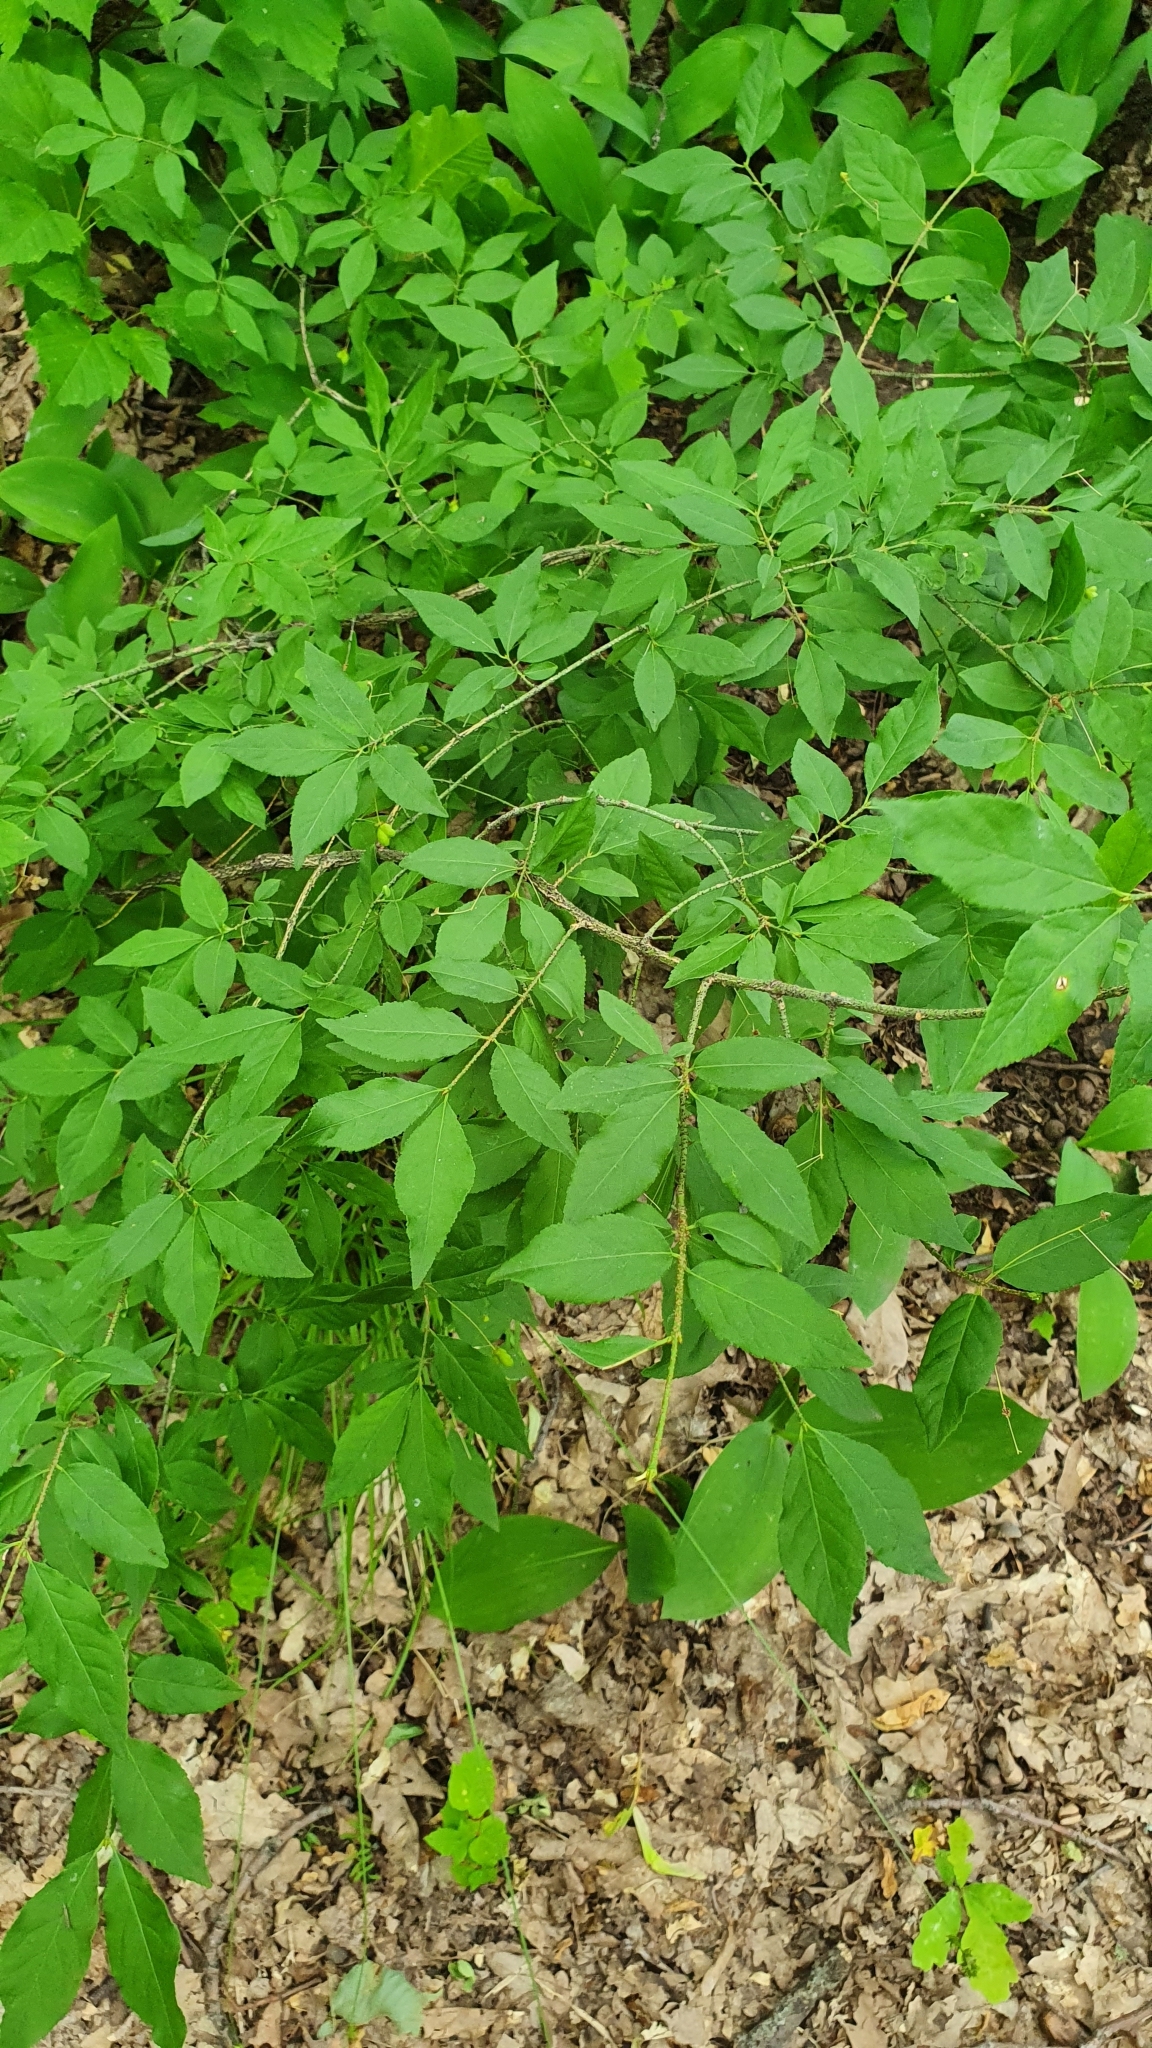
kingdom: Plantae
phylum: Tracheophyta
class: Magnoliopsida
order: Celastrales
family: Celastraceae
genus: Euonymus
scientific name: Euonymus verrucosus
